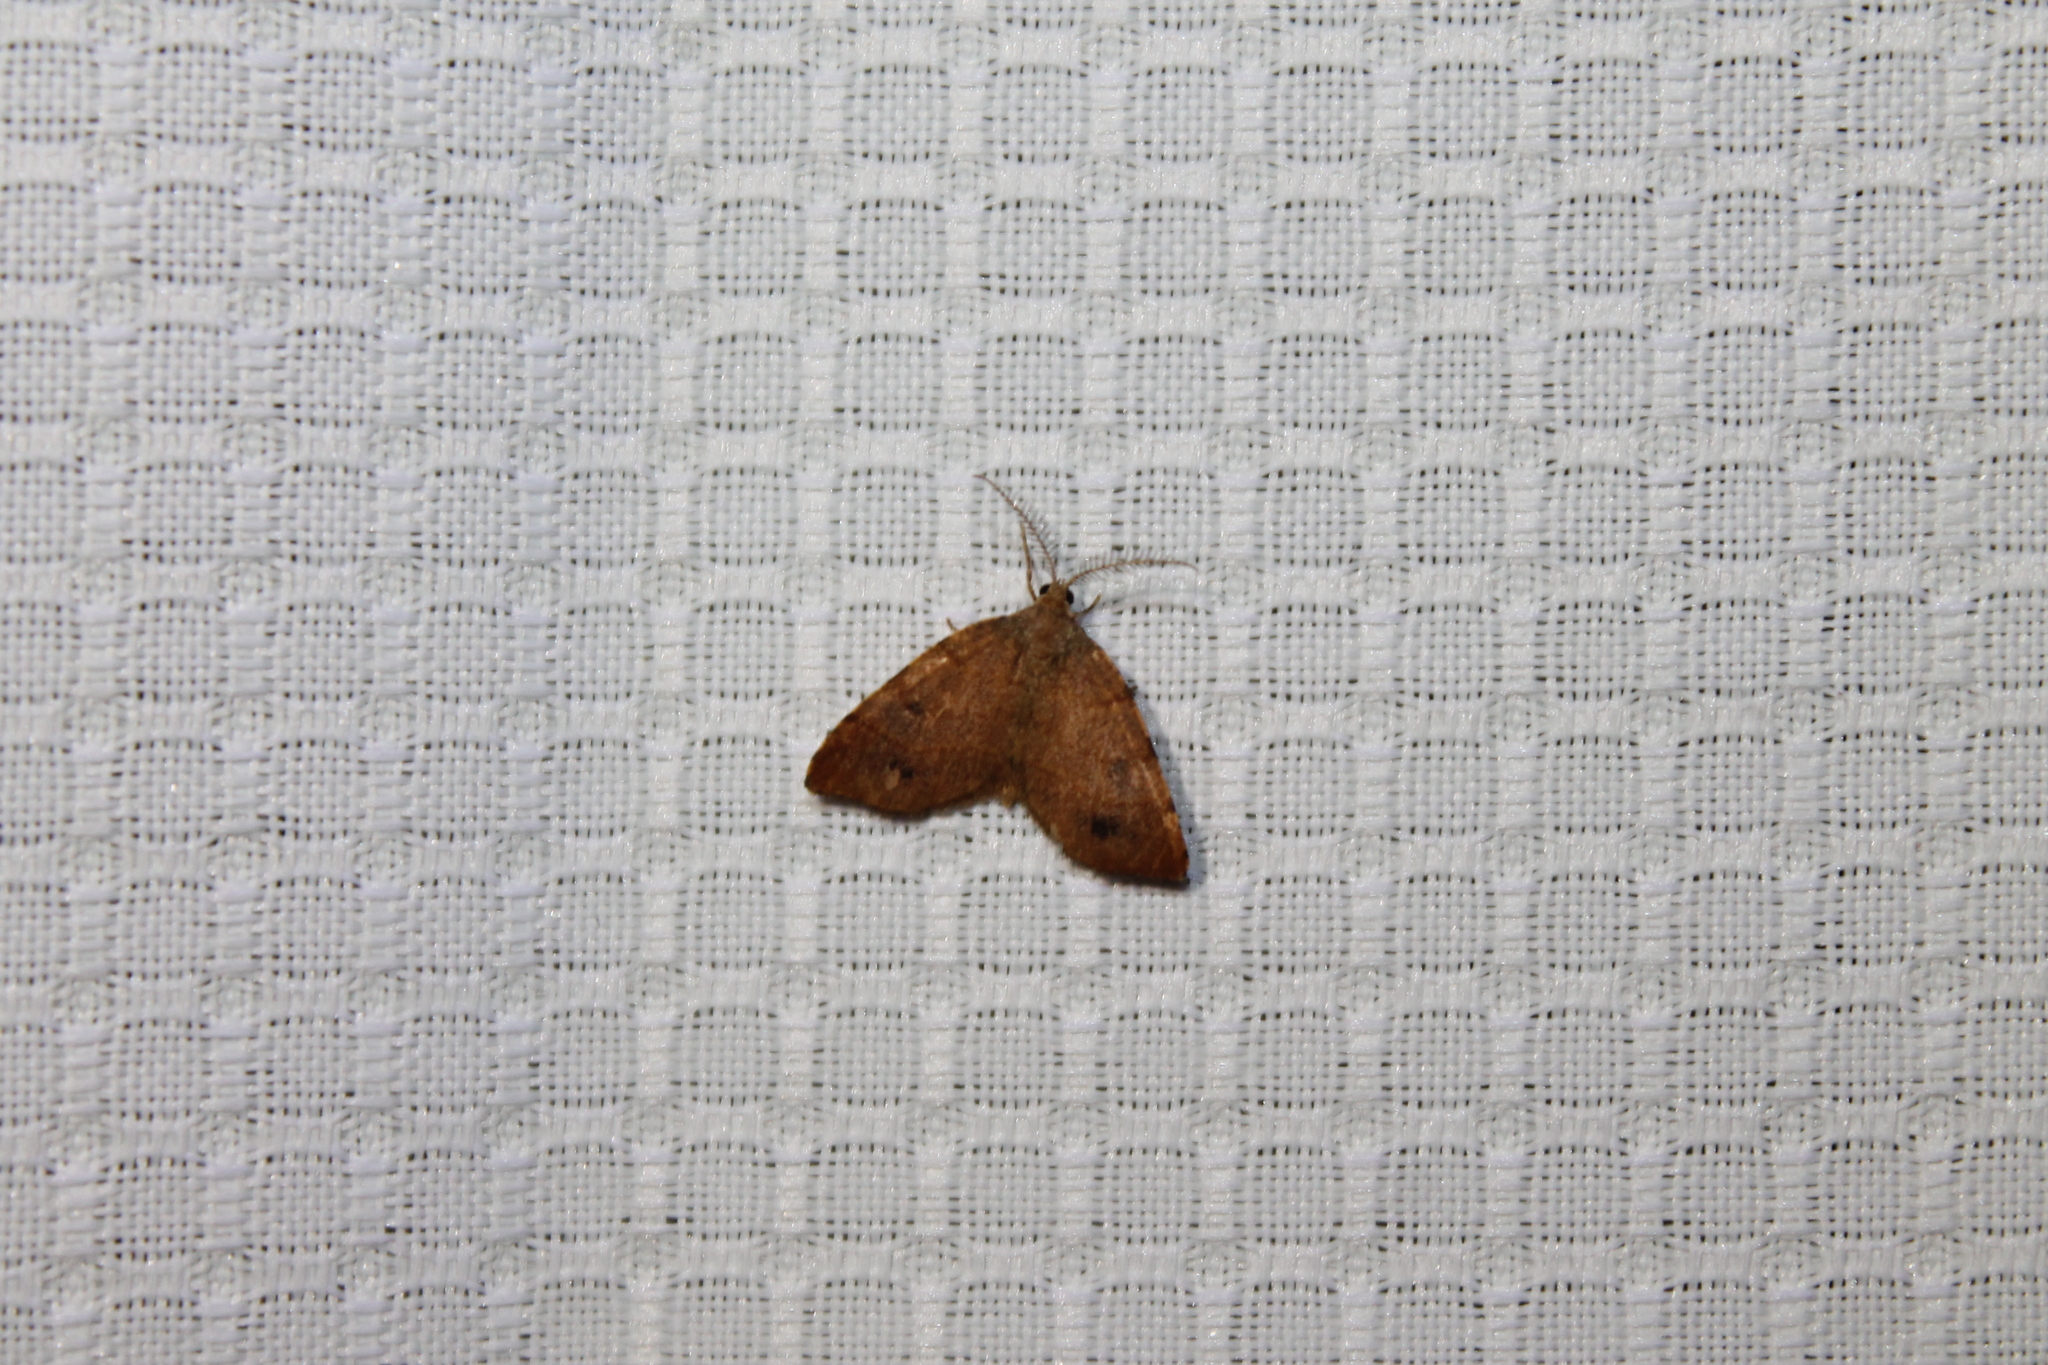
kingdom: Animalia
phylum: Arthropoda
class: Insecta
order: Lepidoptera
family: Geometridae
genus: Mellilla
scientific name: Mellilla xanthometata
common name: Orange wing moth
